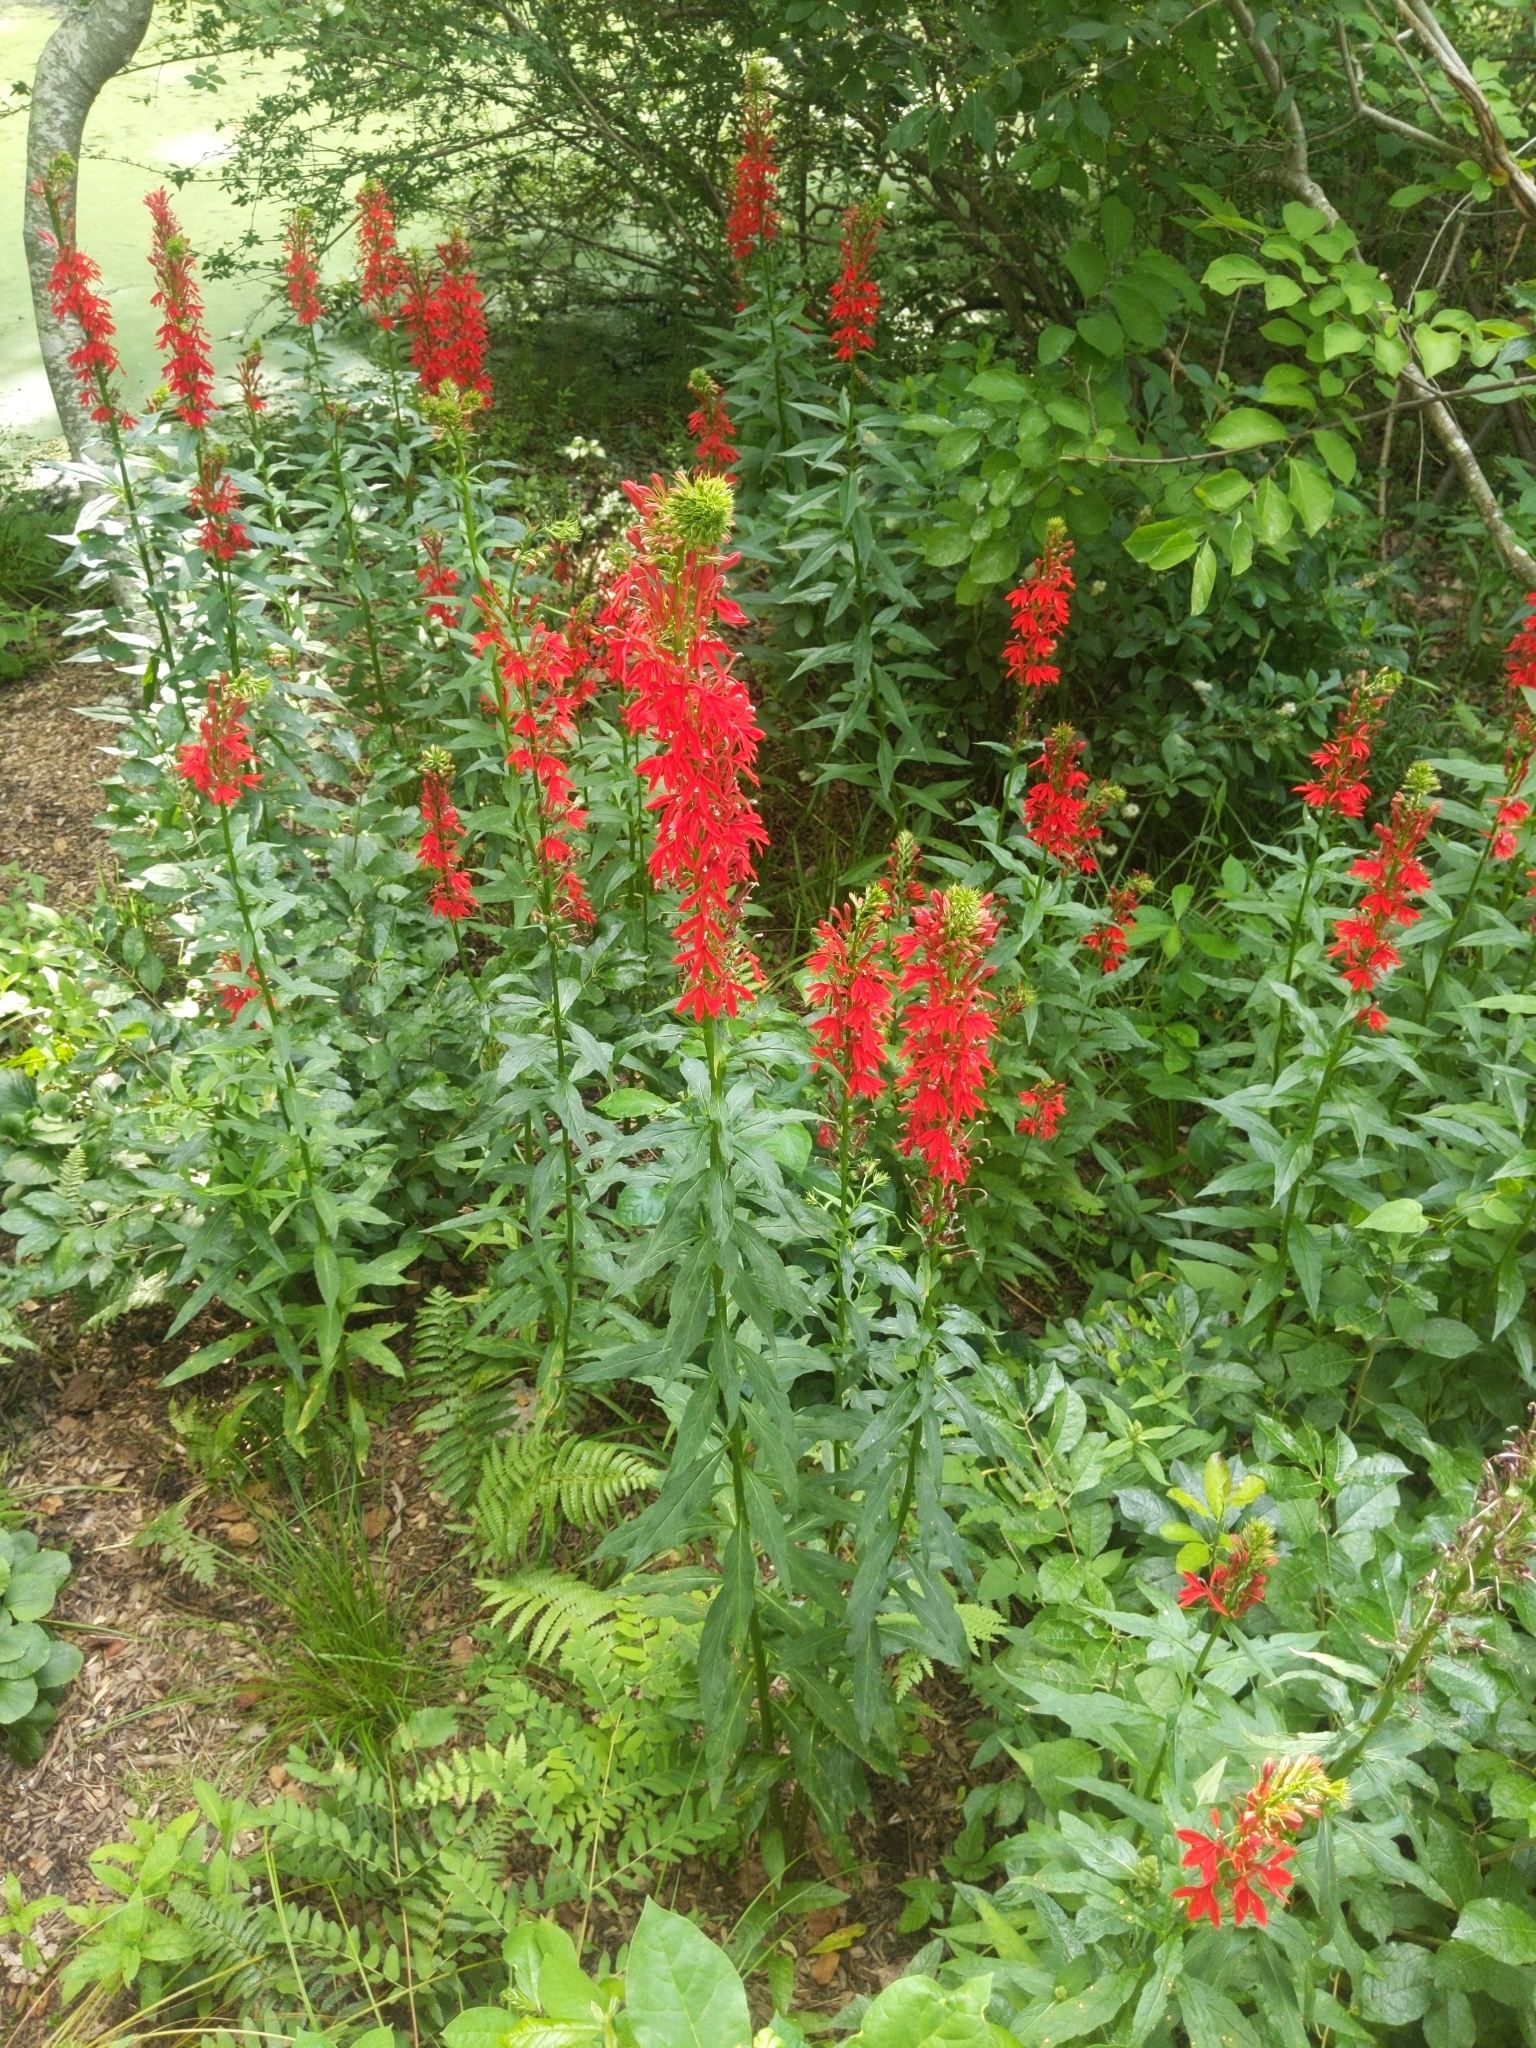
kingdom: Plantae
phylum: Tracheophyta
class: Magnoliopsida
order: Asterales
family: Campanulaceae
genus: Lobelia
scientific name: Lobelia cardinalis
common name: Cardinal flower
